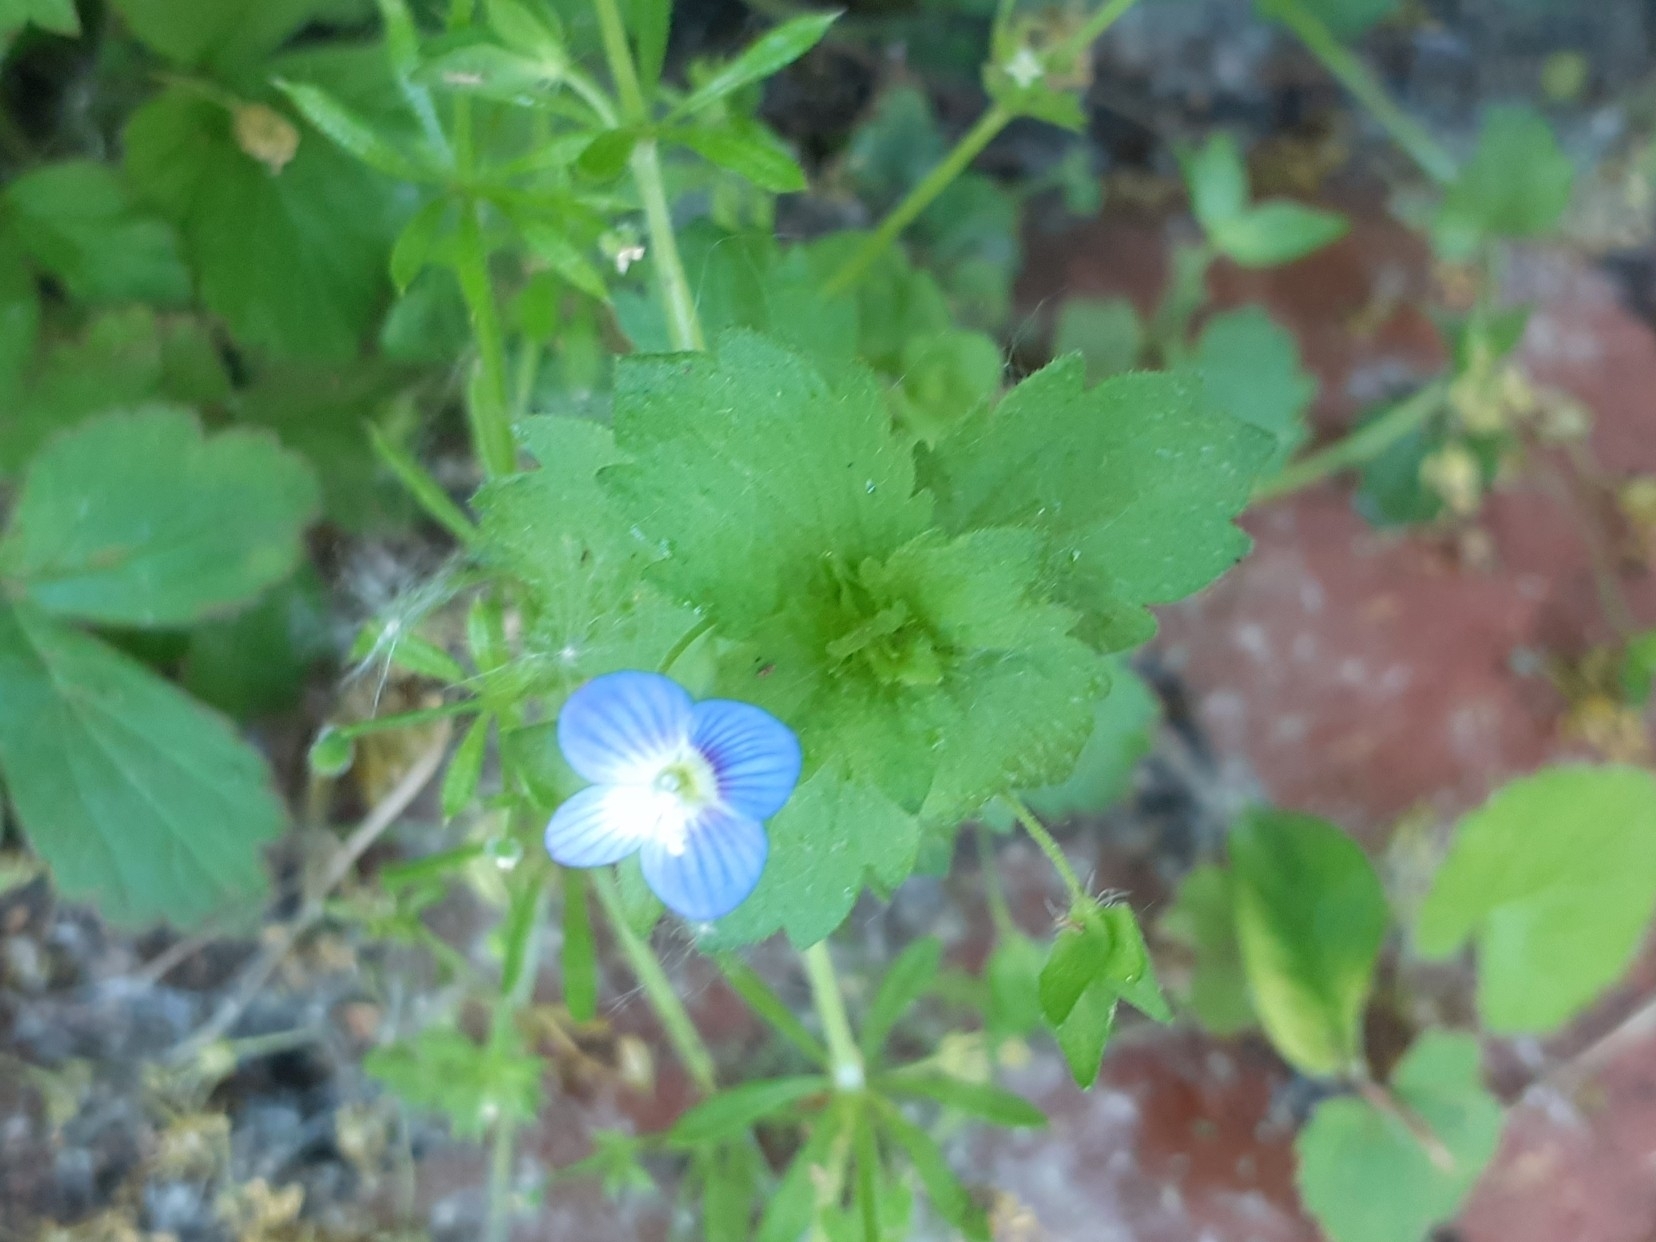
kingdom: Plantae
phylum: Tracheophyta
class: Magnoliopsida
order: Lamiales
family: Plantaginaceae
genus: Veronica
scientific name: Veronica persica
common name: Common field-speedwell
